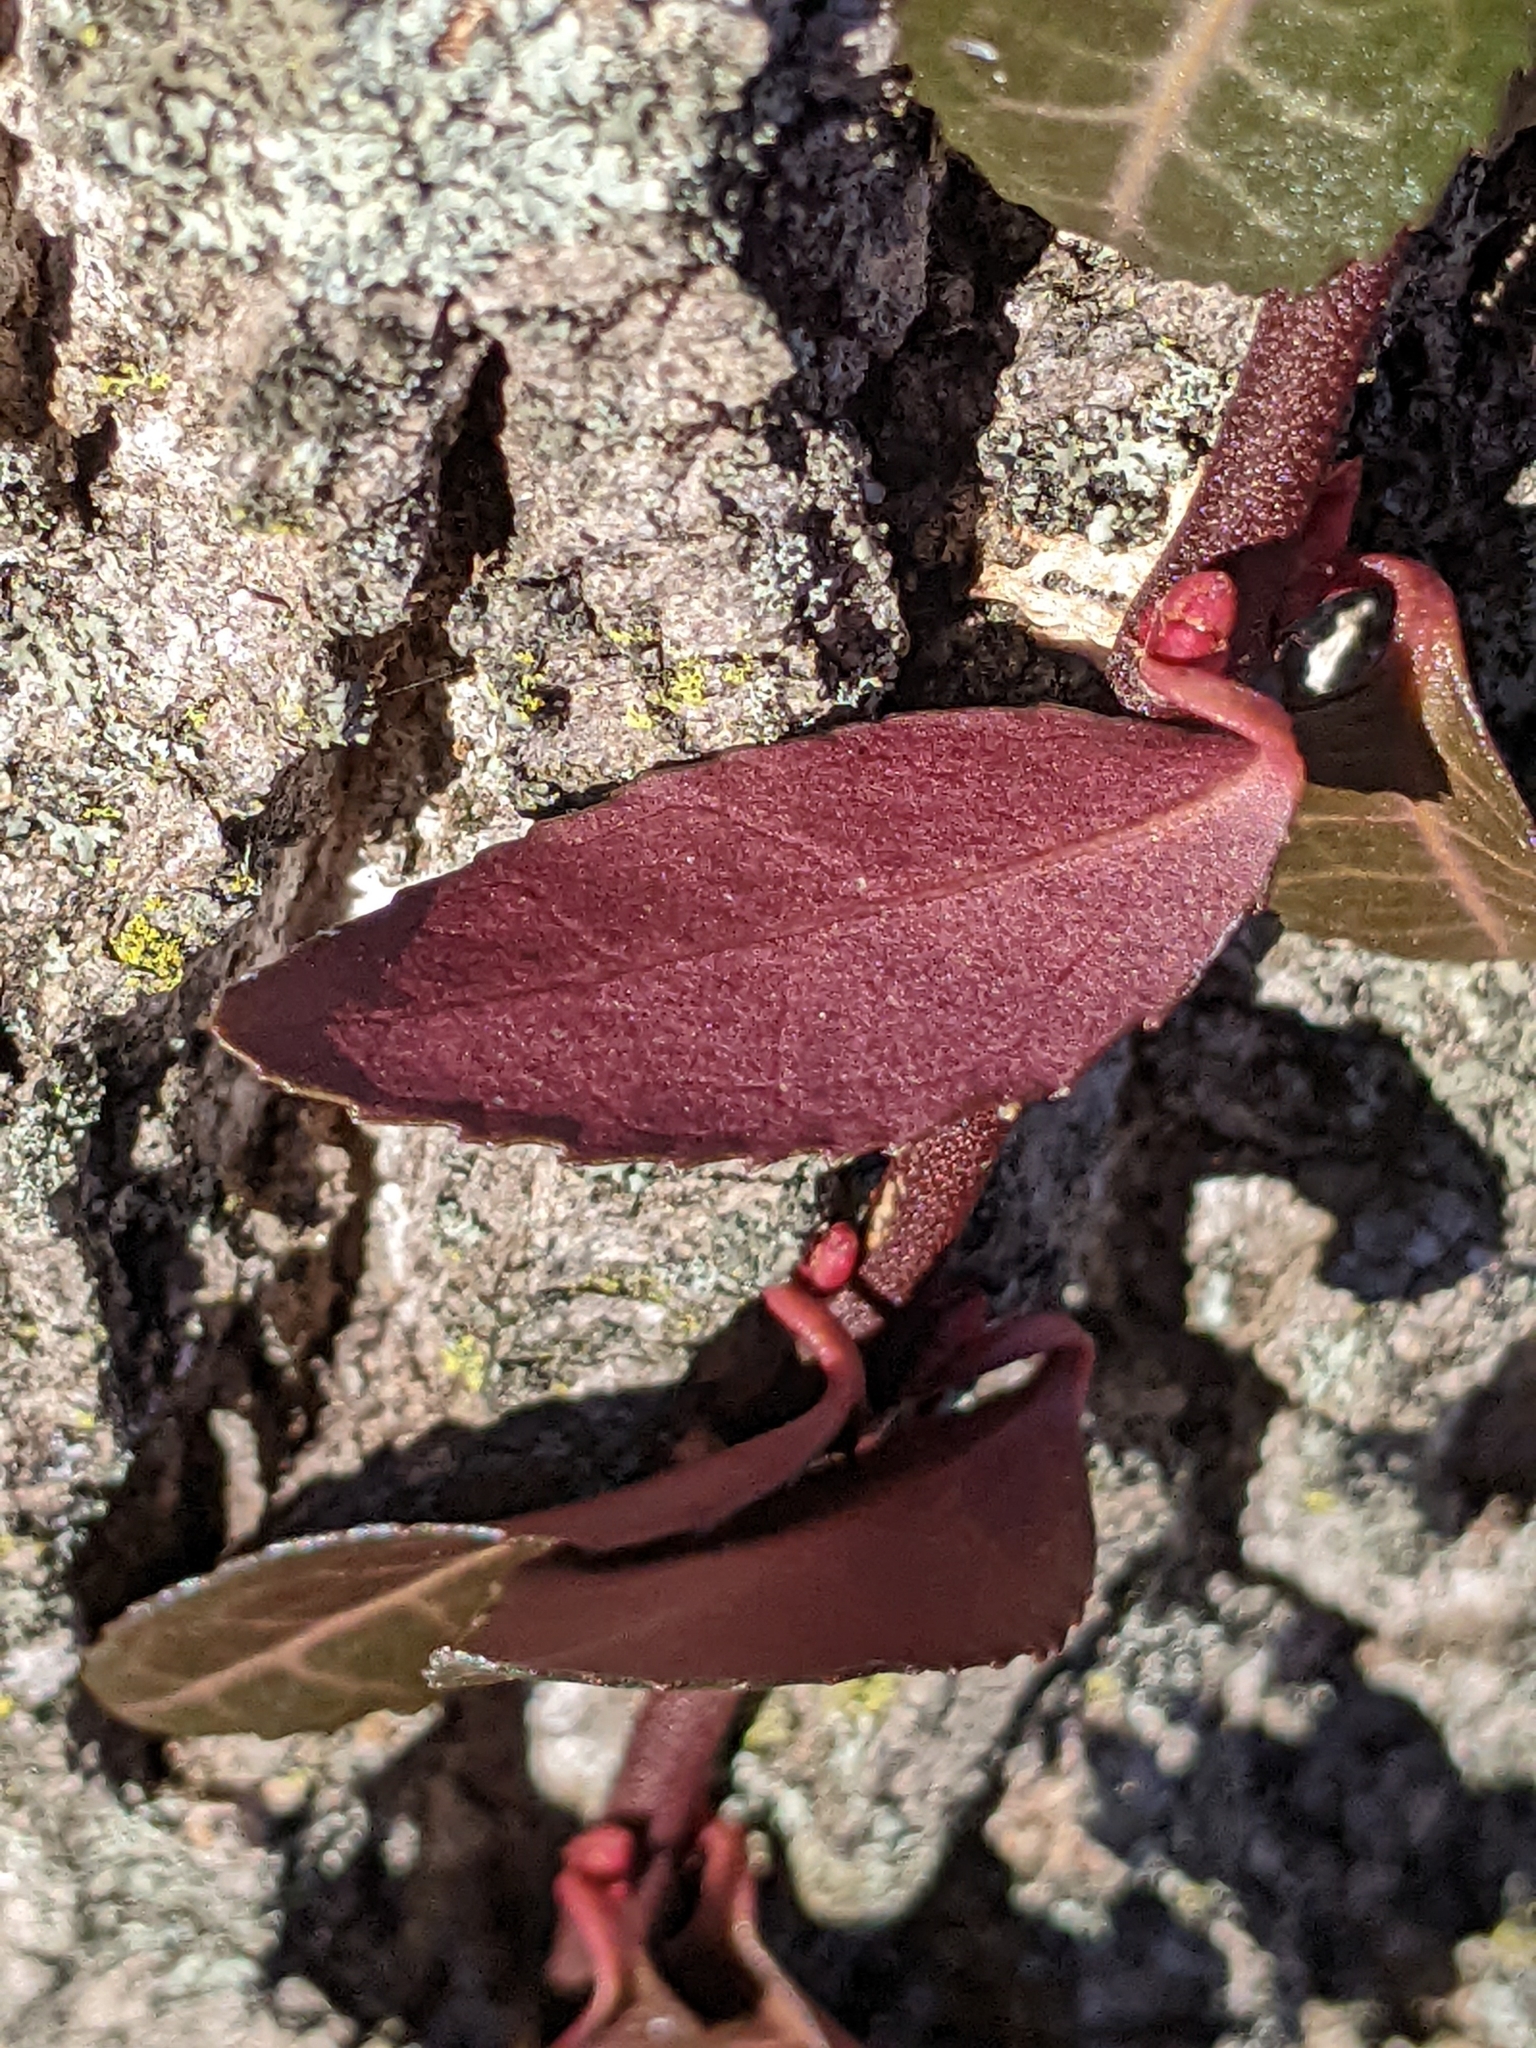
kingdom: Plantae
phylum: Tracheophyta
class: Magnoliopsida
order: Celastrales
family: Celastraceae
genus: Euonymus
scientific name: Euonymus fortunei
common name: Climbing euonymus
